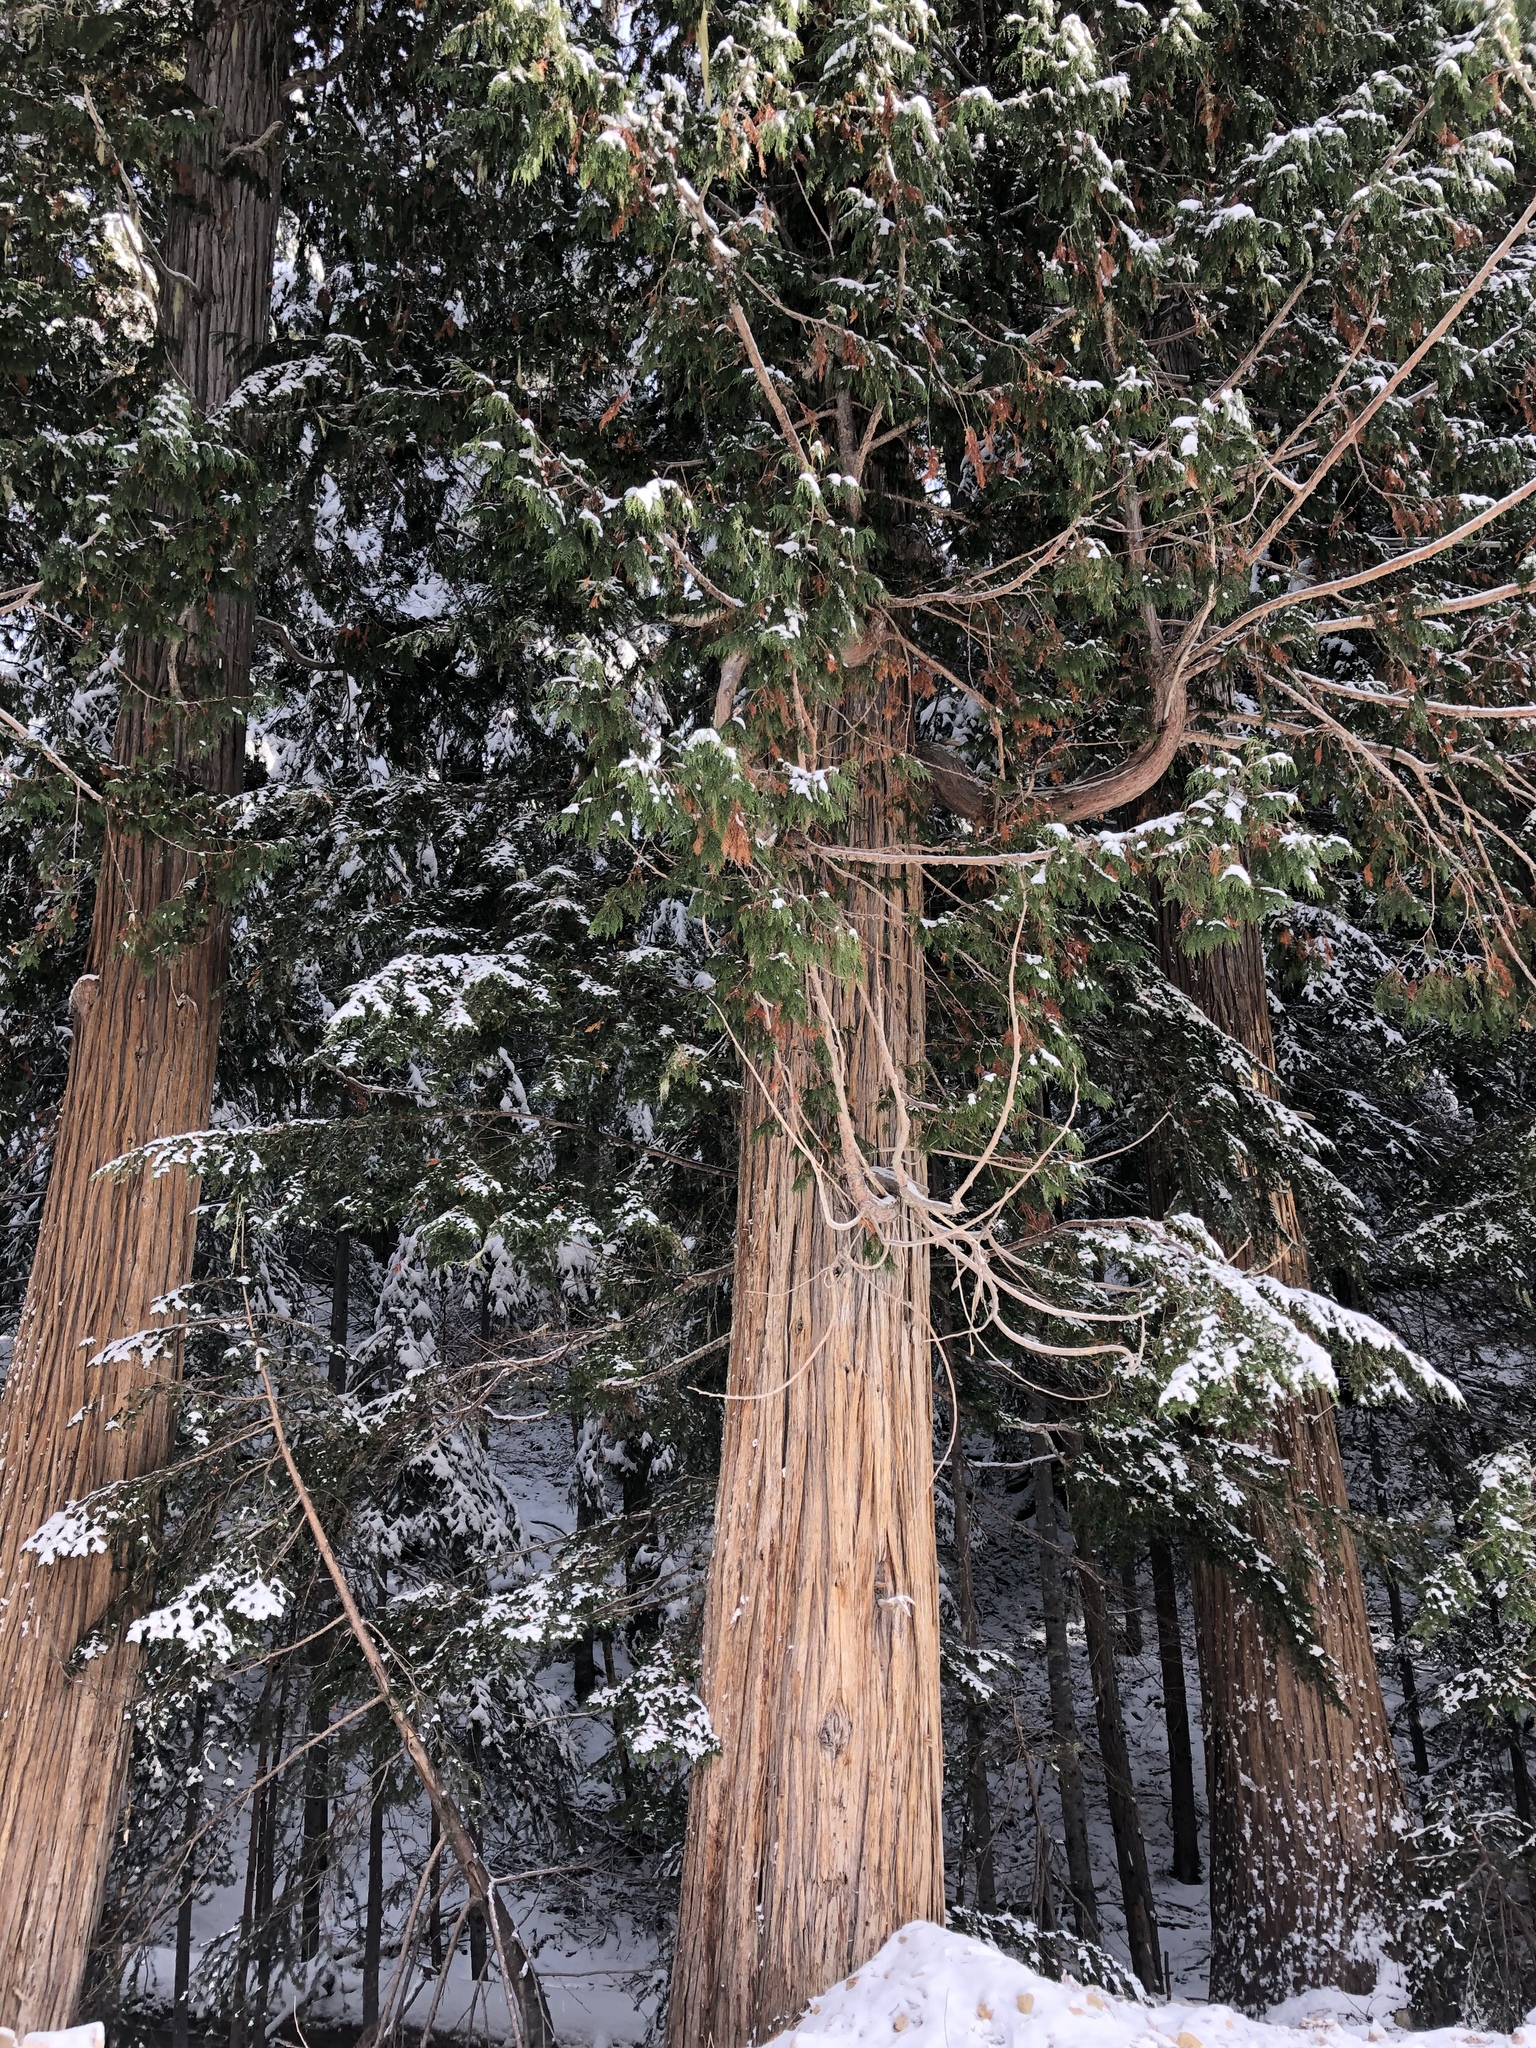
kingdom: Plantae
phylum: Tracheophyta
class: Pinopsida
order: Pinales
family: Cupressaceae
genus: Thuja
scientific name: Thuja plicata
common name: Western red-cedar
